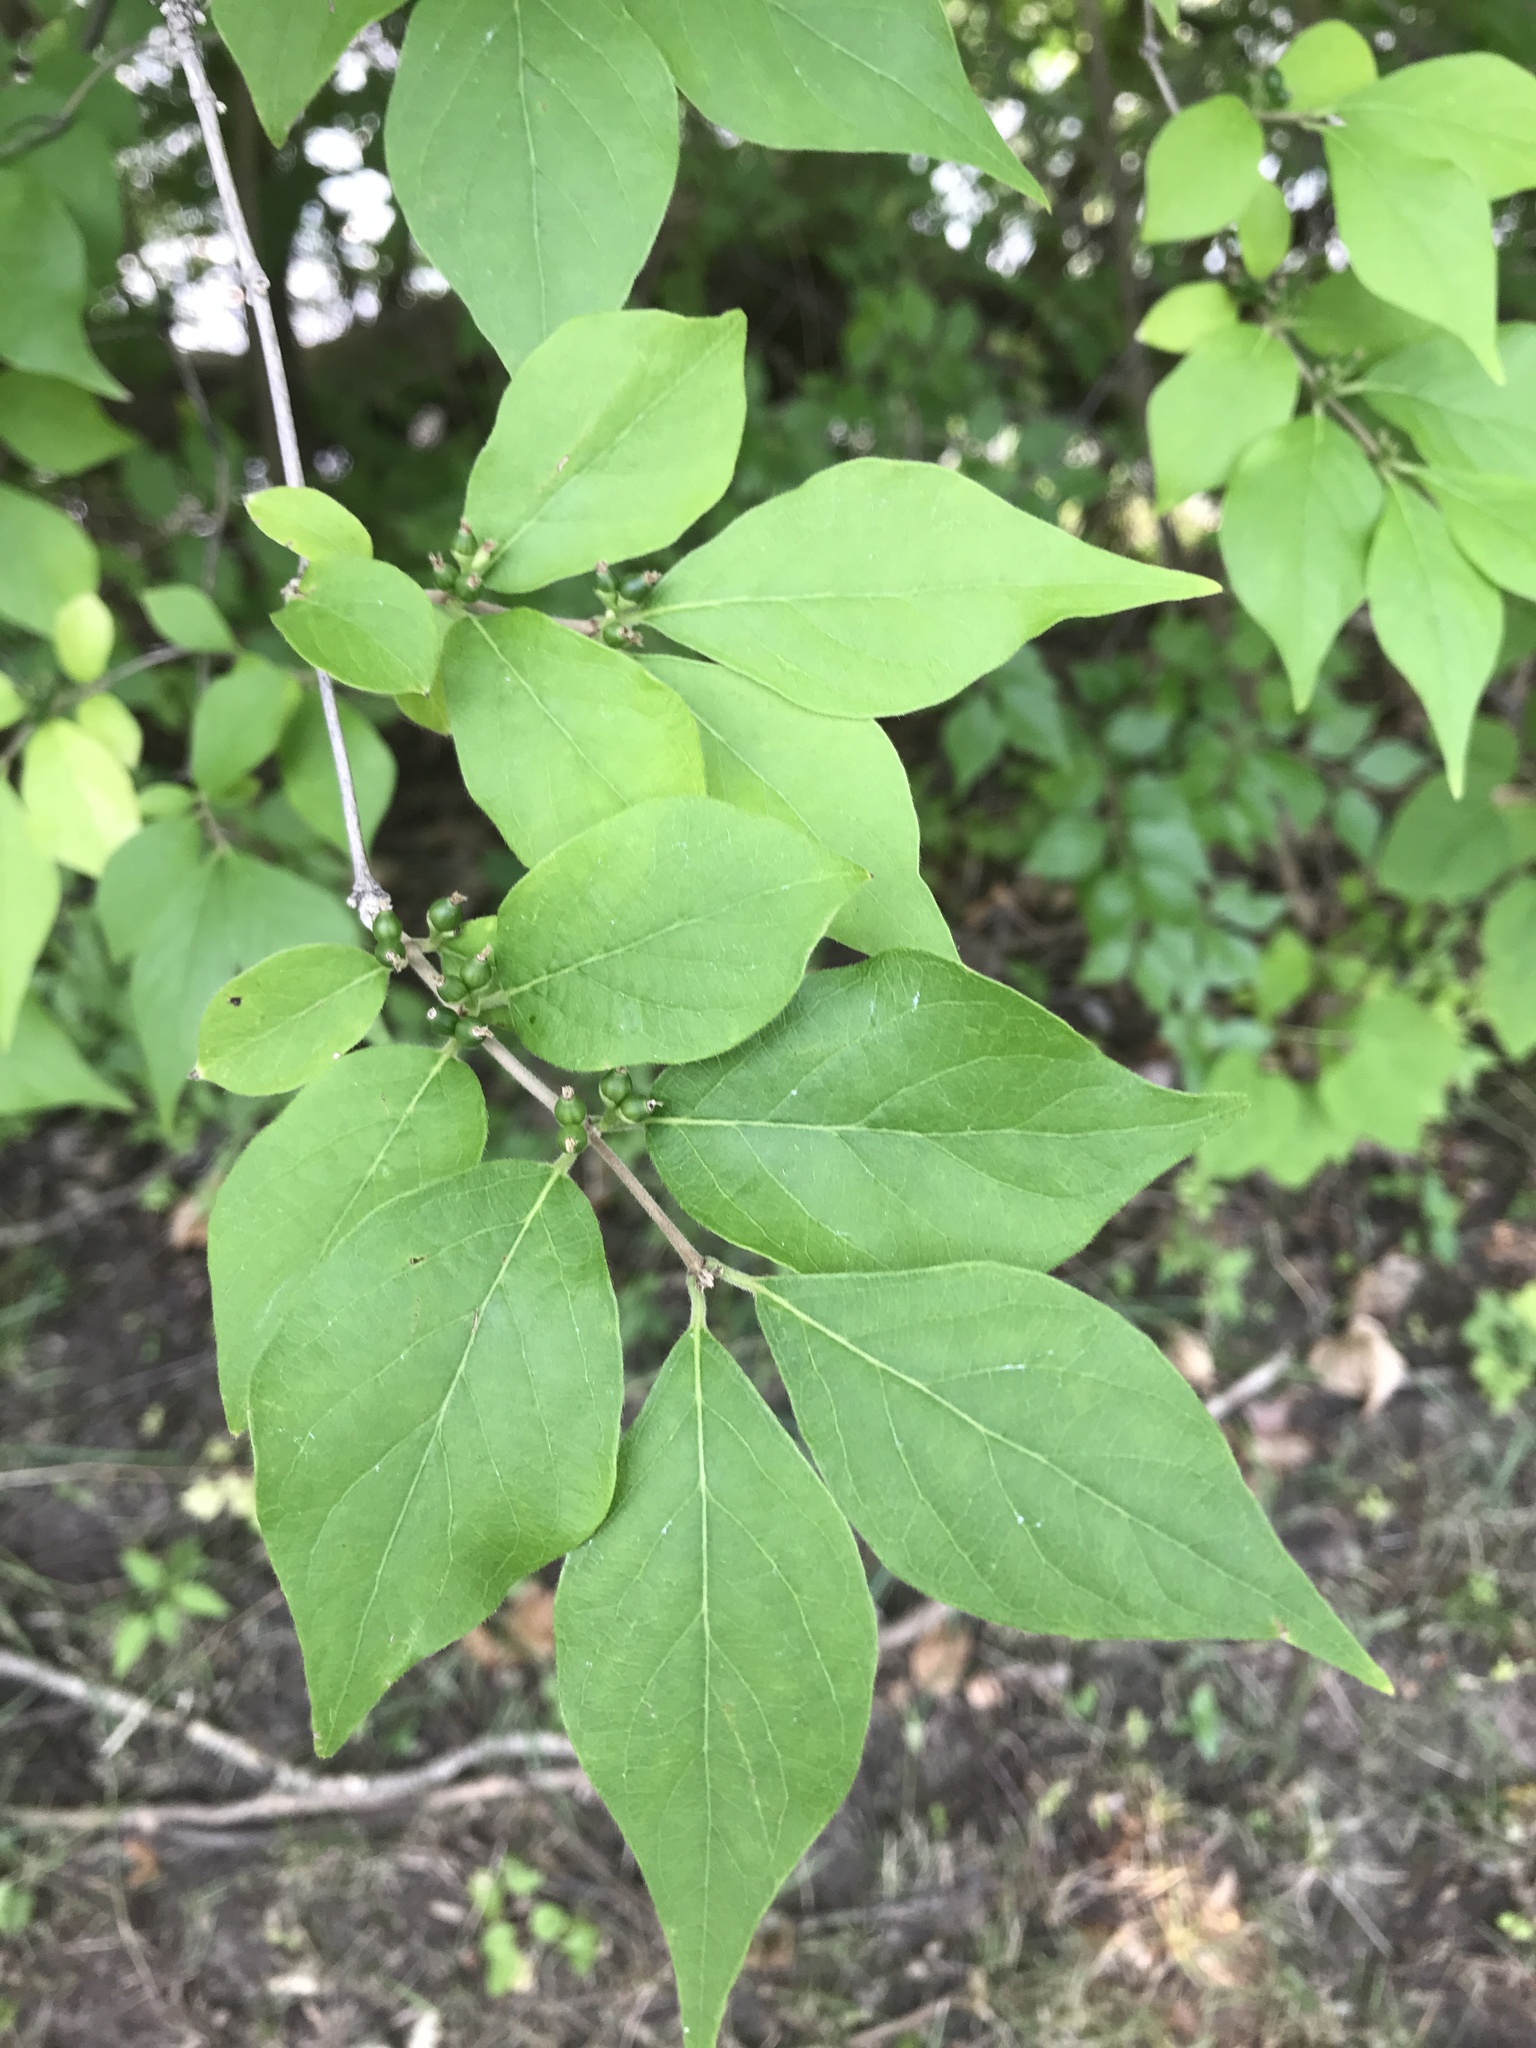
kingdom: Plantae
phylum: Tracheophyta
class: Magnoliopsida
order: Dipsacales
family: Caprifoliaceae
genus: Lonicera
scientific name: Lonicera maackii
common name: Amur honeysuckle
